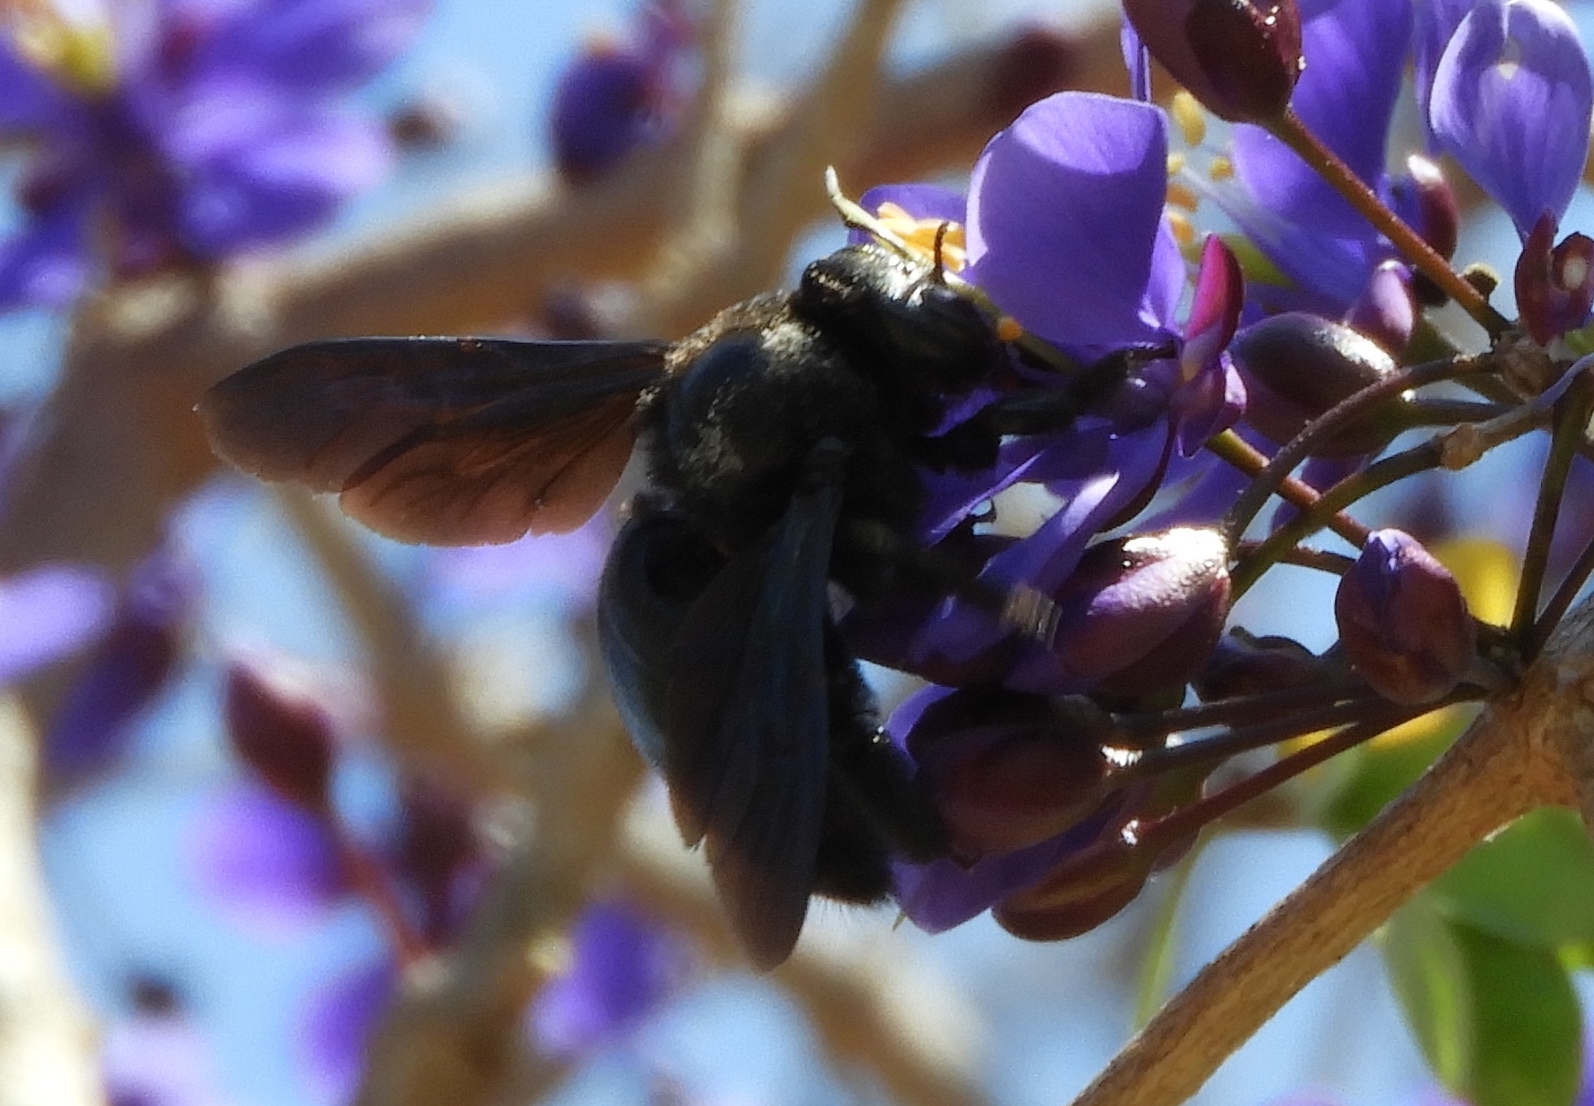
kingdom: Animalia
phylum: Arthropoda
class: Insecta
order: Hymenoptera
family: Apidae
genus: Xylocopa
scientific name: Xylocopa
